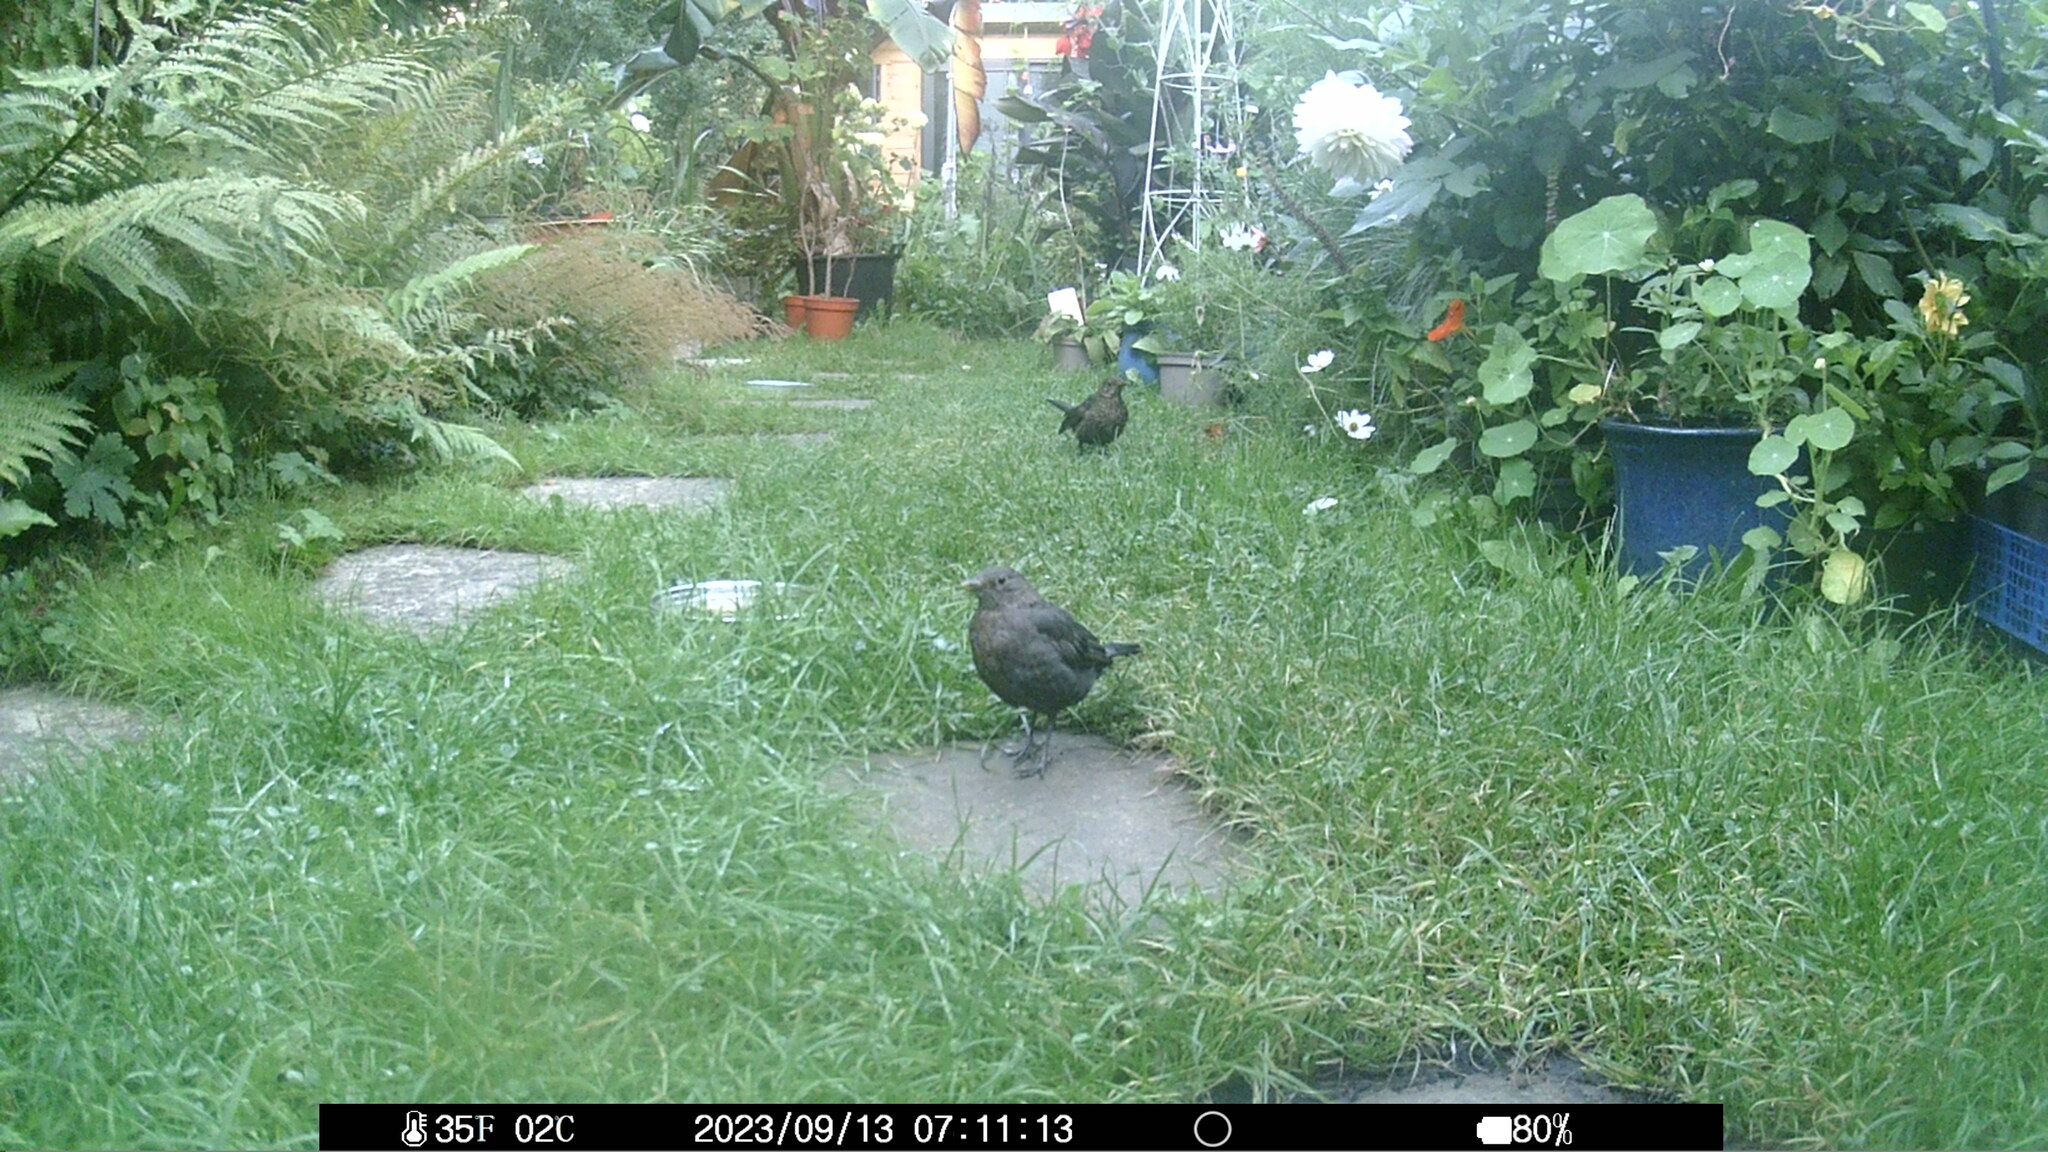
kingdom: Animalia
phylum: Chordata
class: Aves
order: Passeriformes
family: Turdidae
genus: Turdus
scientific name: Turdus merula
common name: Common blackbird
